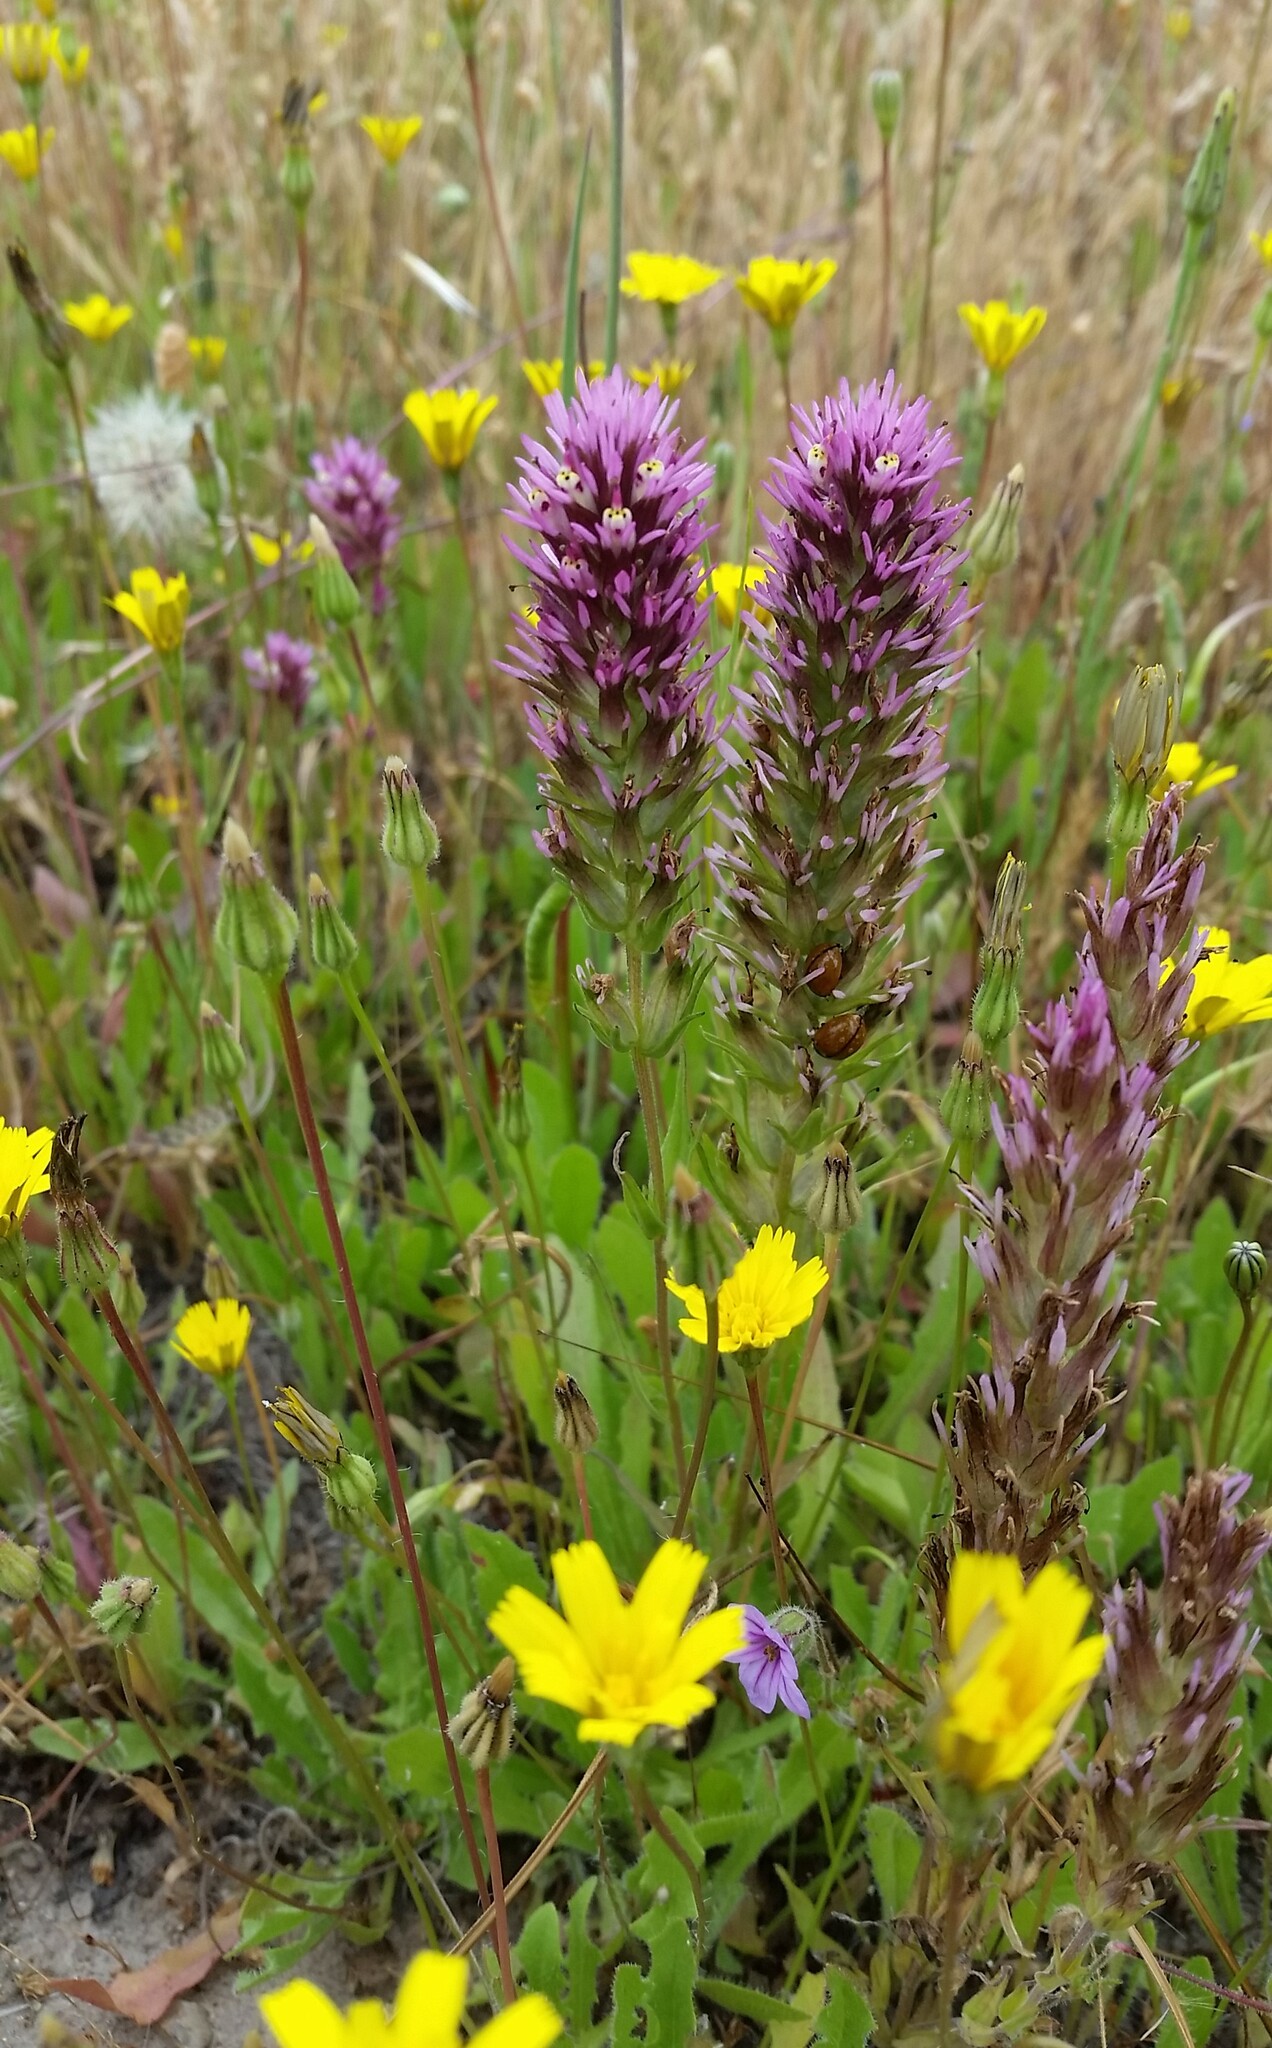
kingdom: Plantae
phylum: Tracheophyta
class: Magnoliopsida
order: Lamiales
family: Orobanchaceae
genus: Castilleja
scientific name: Castilleja densiflora
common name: Dense-flower indian paintbrush
